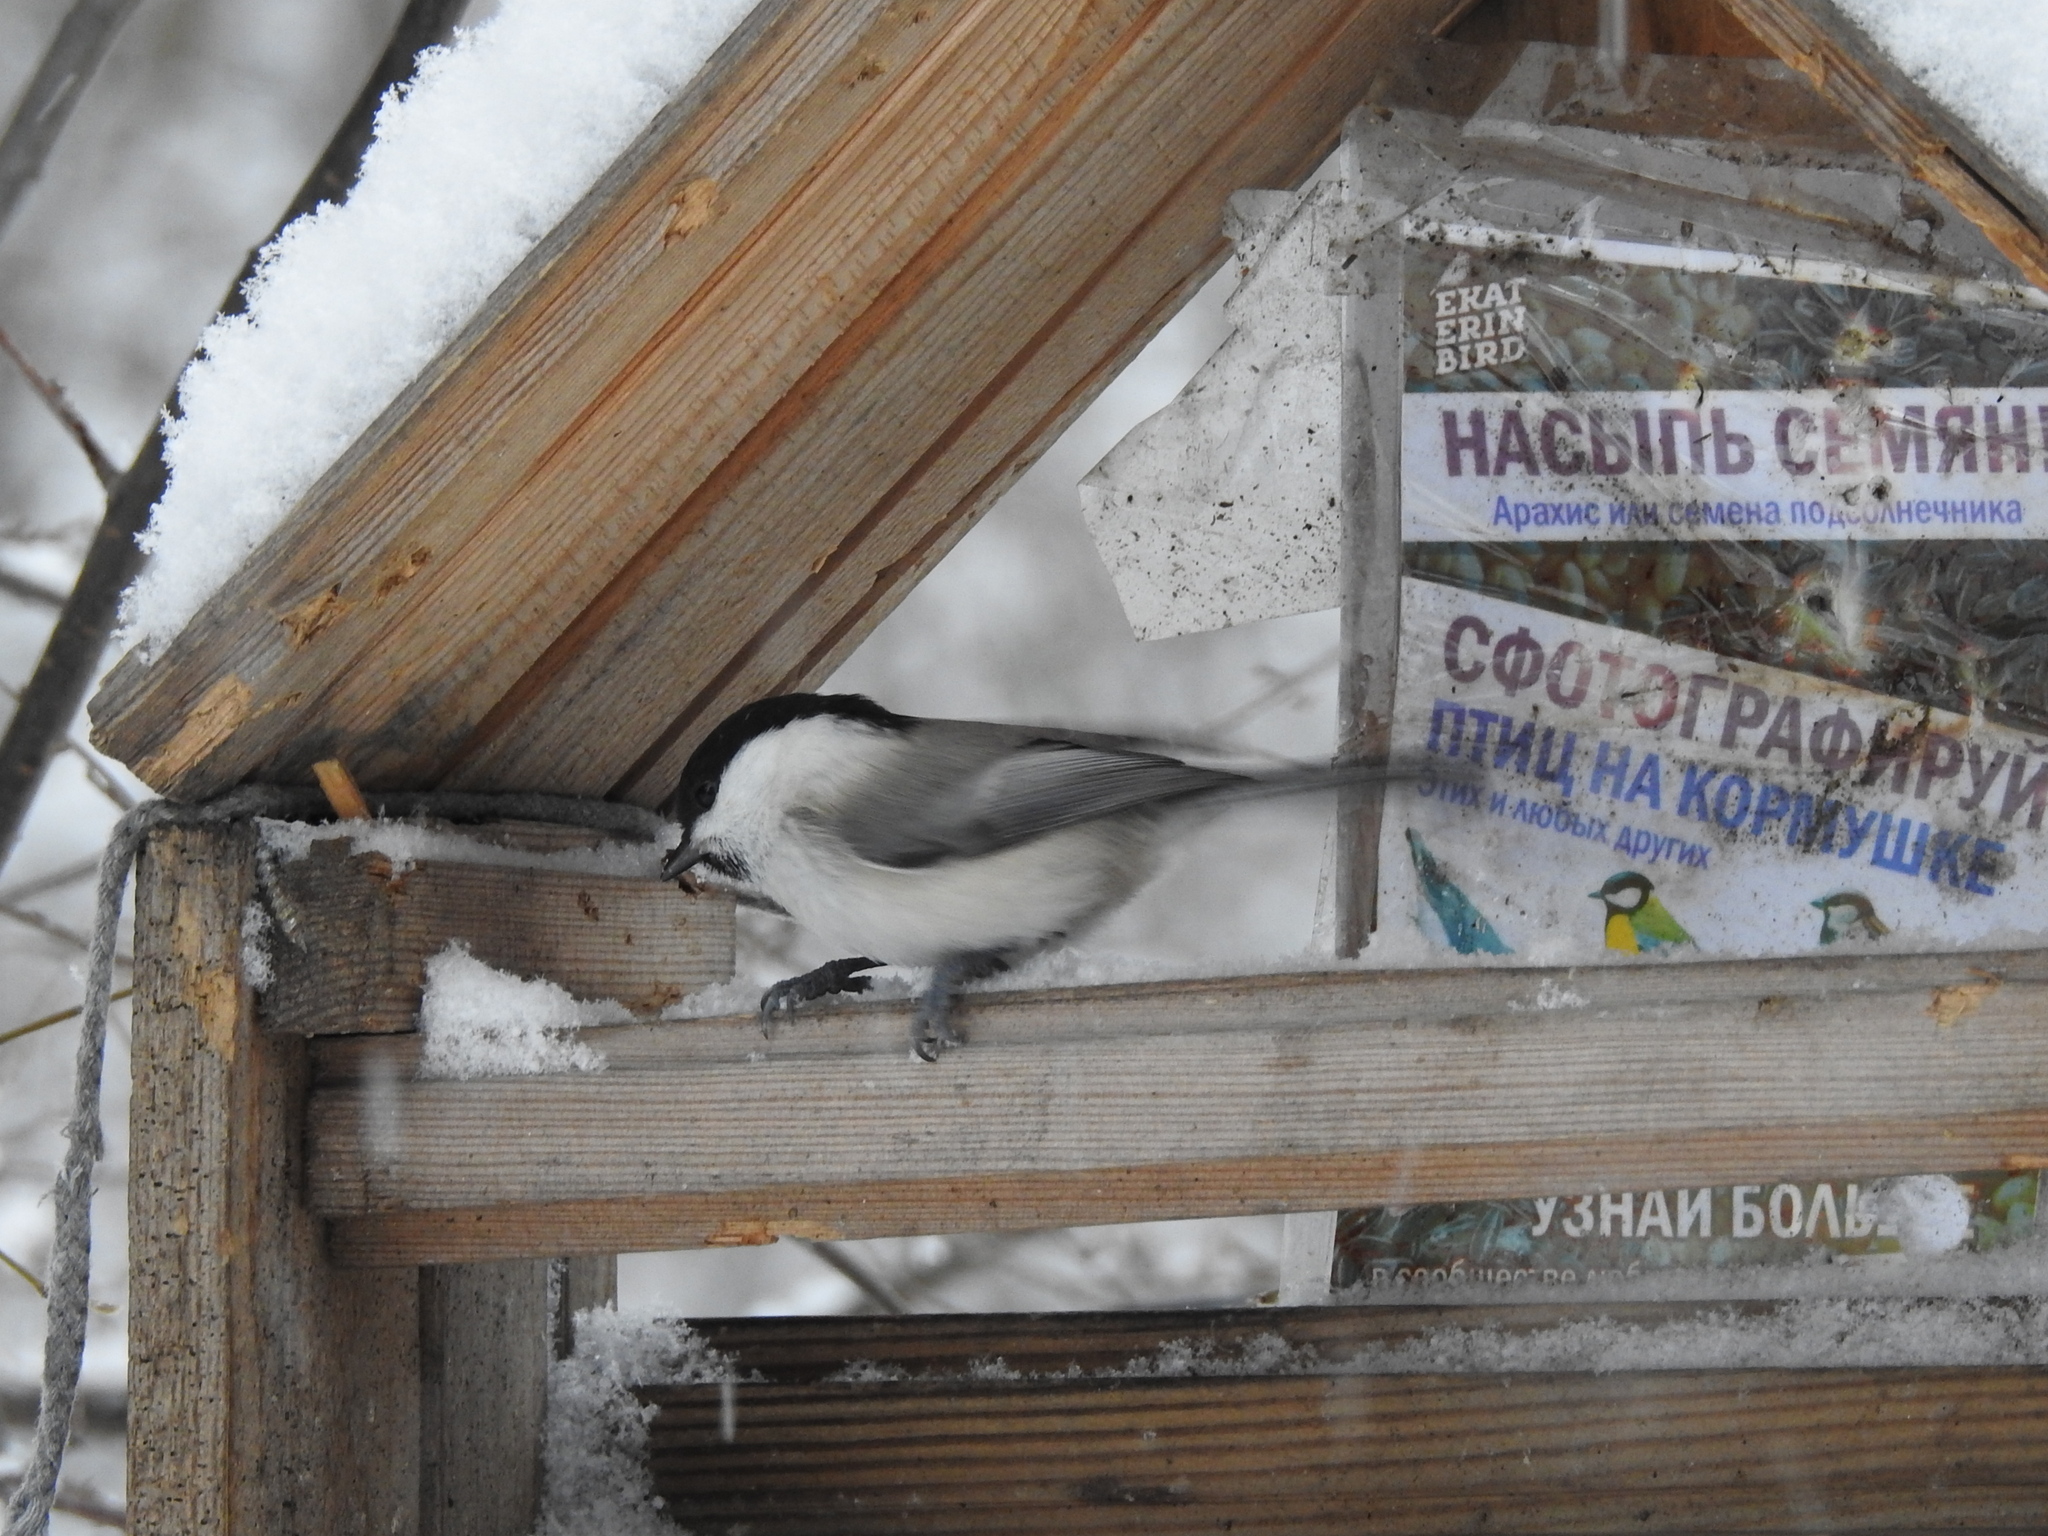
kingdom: Animalia
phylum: Chordata
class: Aves
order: Passeriformes
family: Paridae
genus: Poecile
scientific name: Poecile montanus
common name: Willow tit
